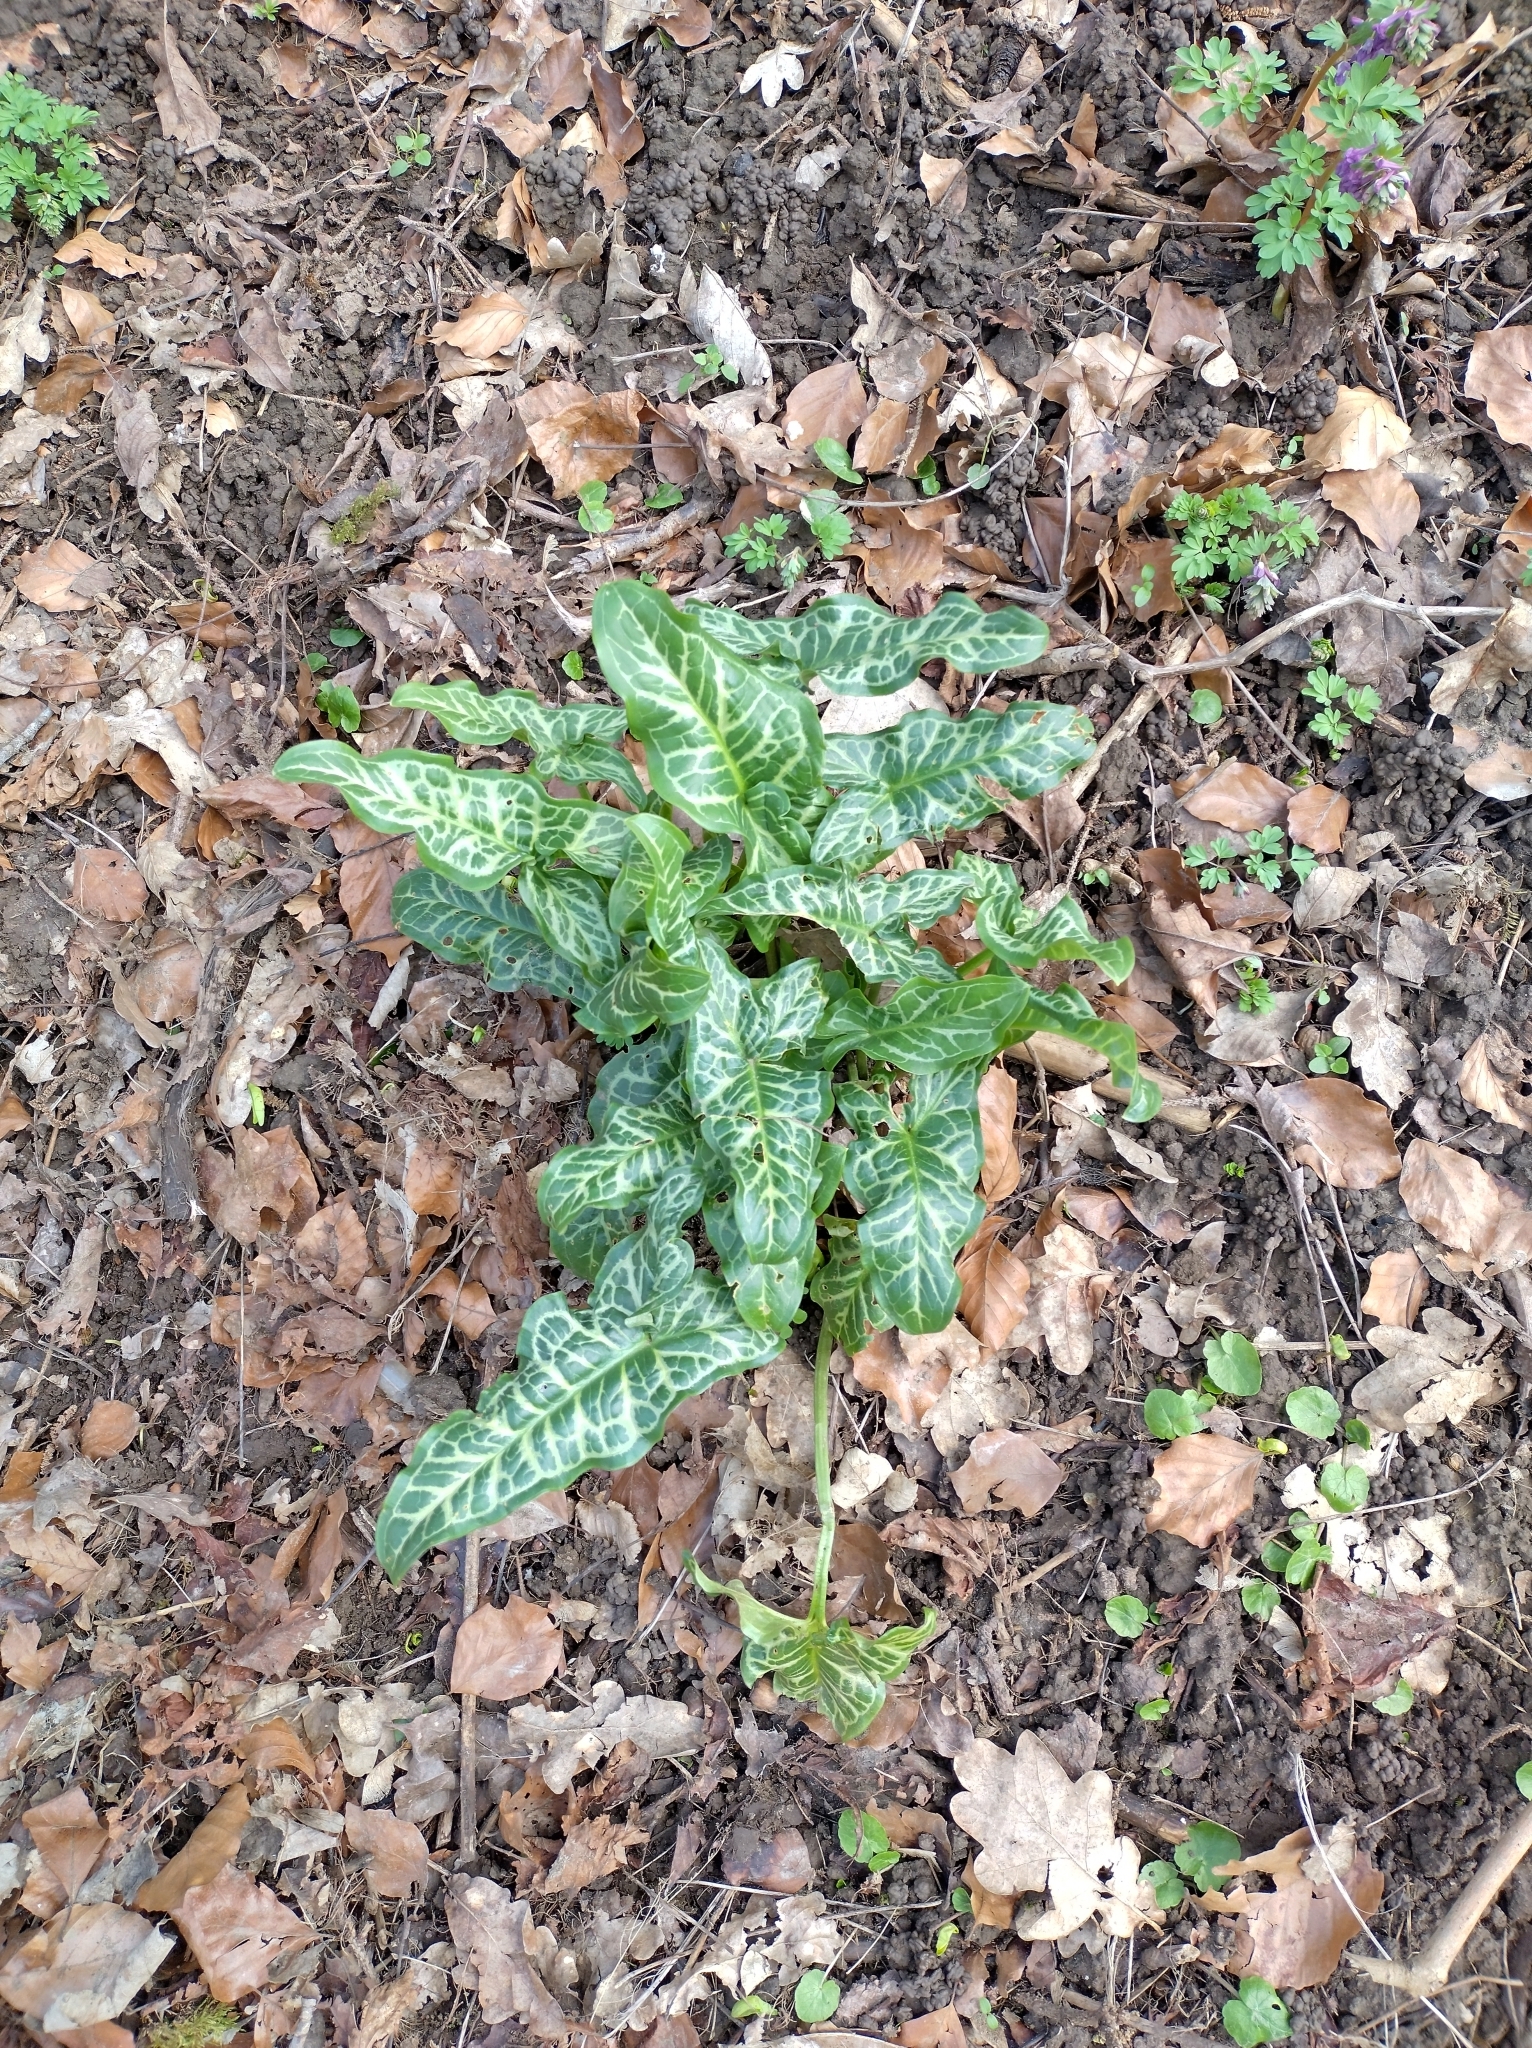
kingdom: Plantae
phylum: Tracheophyta
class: Liliopsida
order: Alismatales
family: Araceae
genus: Arum
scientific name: Arum italicum
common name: Italian lords-and-ladies
